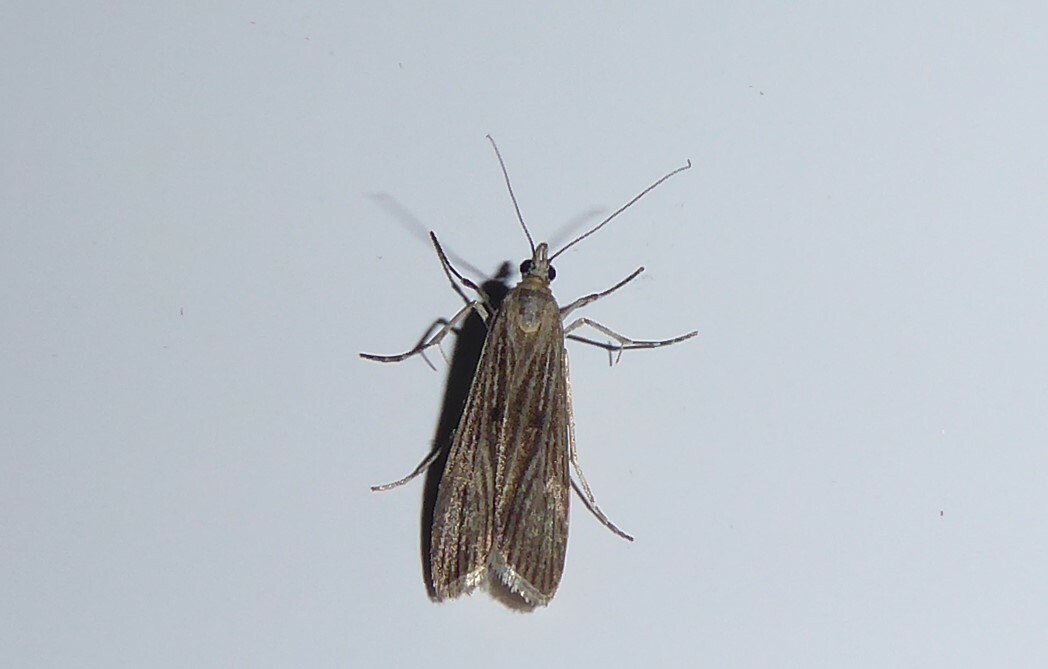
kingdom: Animalia
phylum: Arthropoda
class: Insecta
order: Lepidoptera
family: Crambidae
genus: Eudonia
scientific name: Eudonia atmogramma
